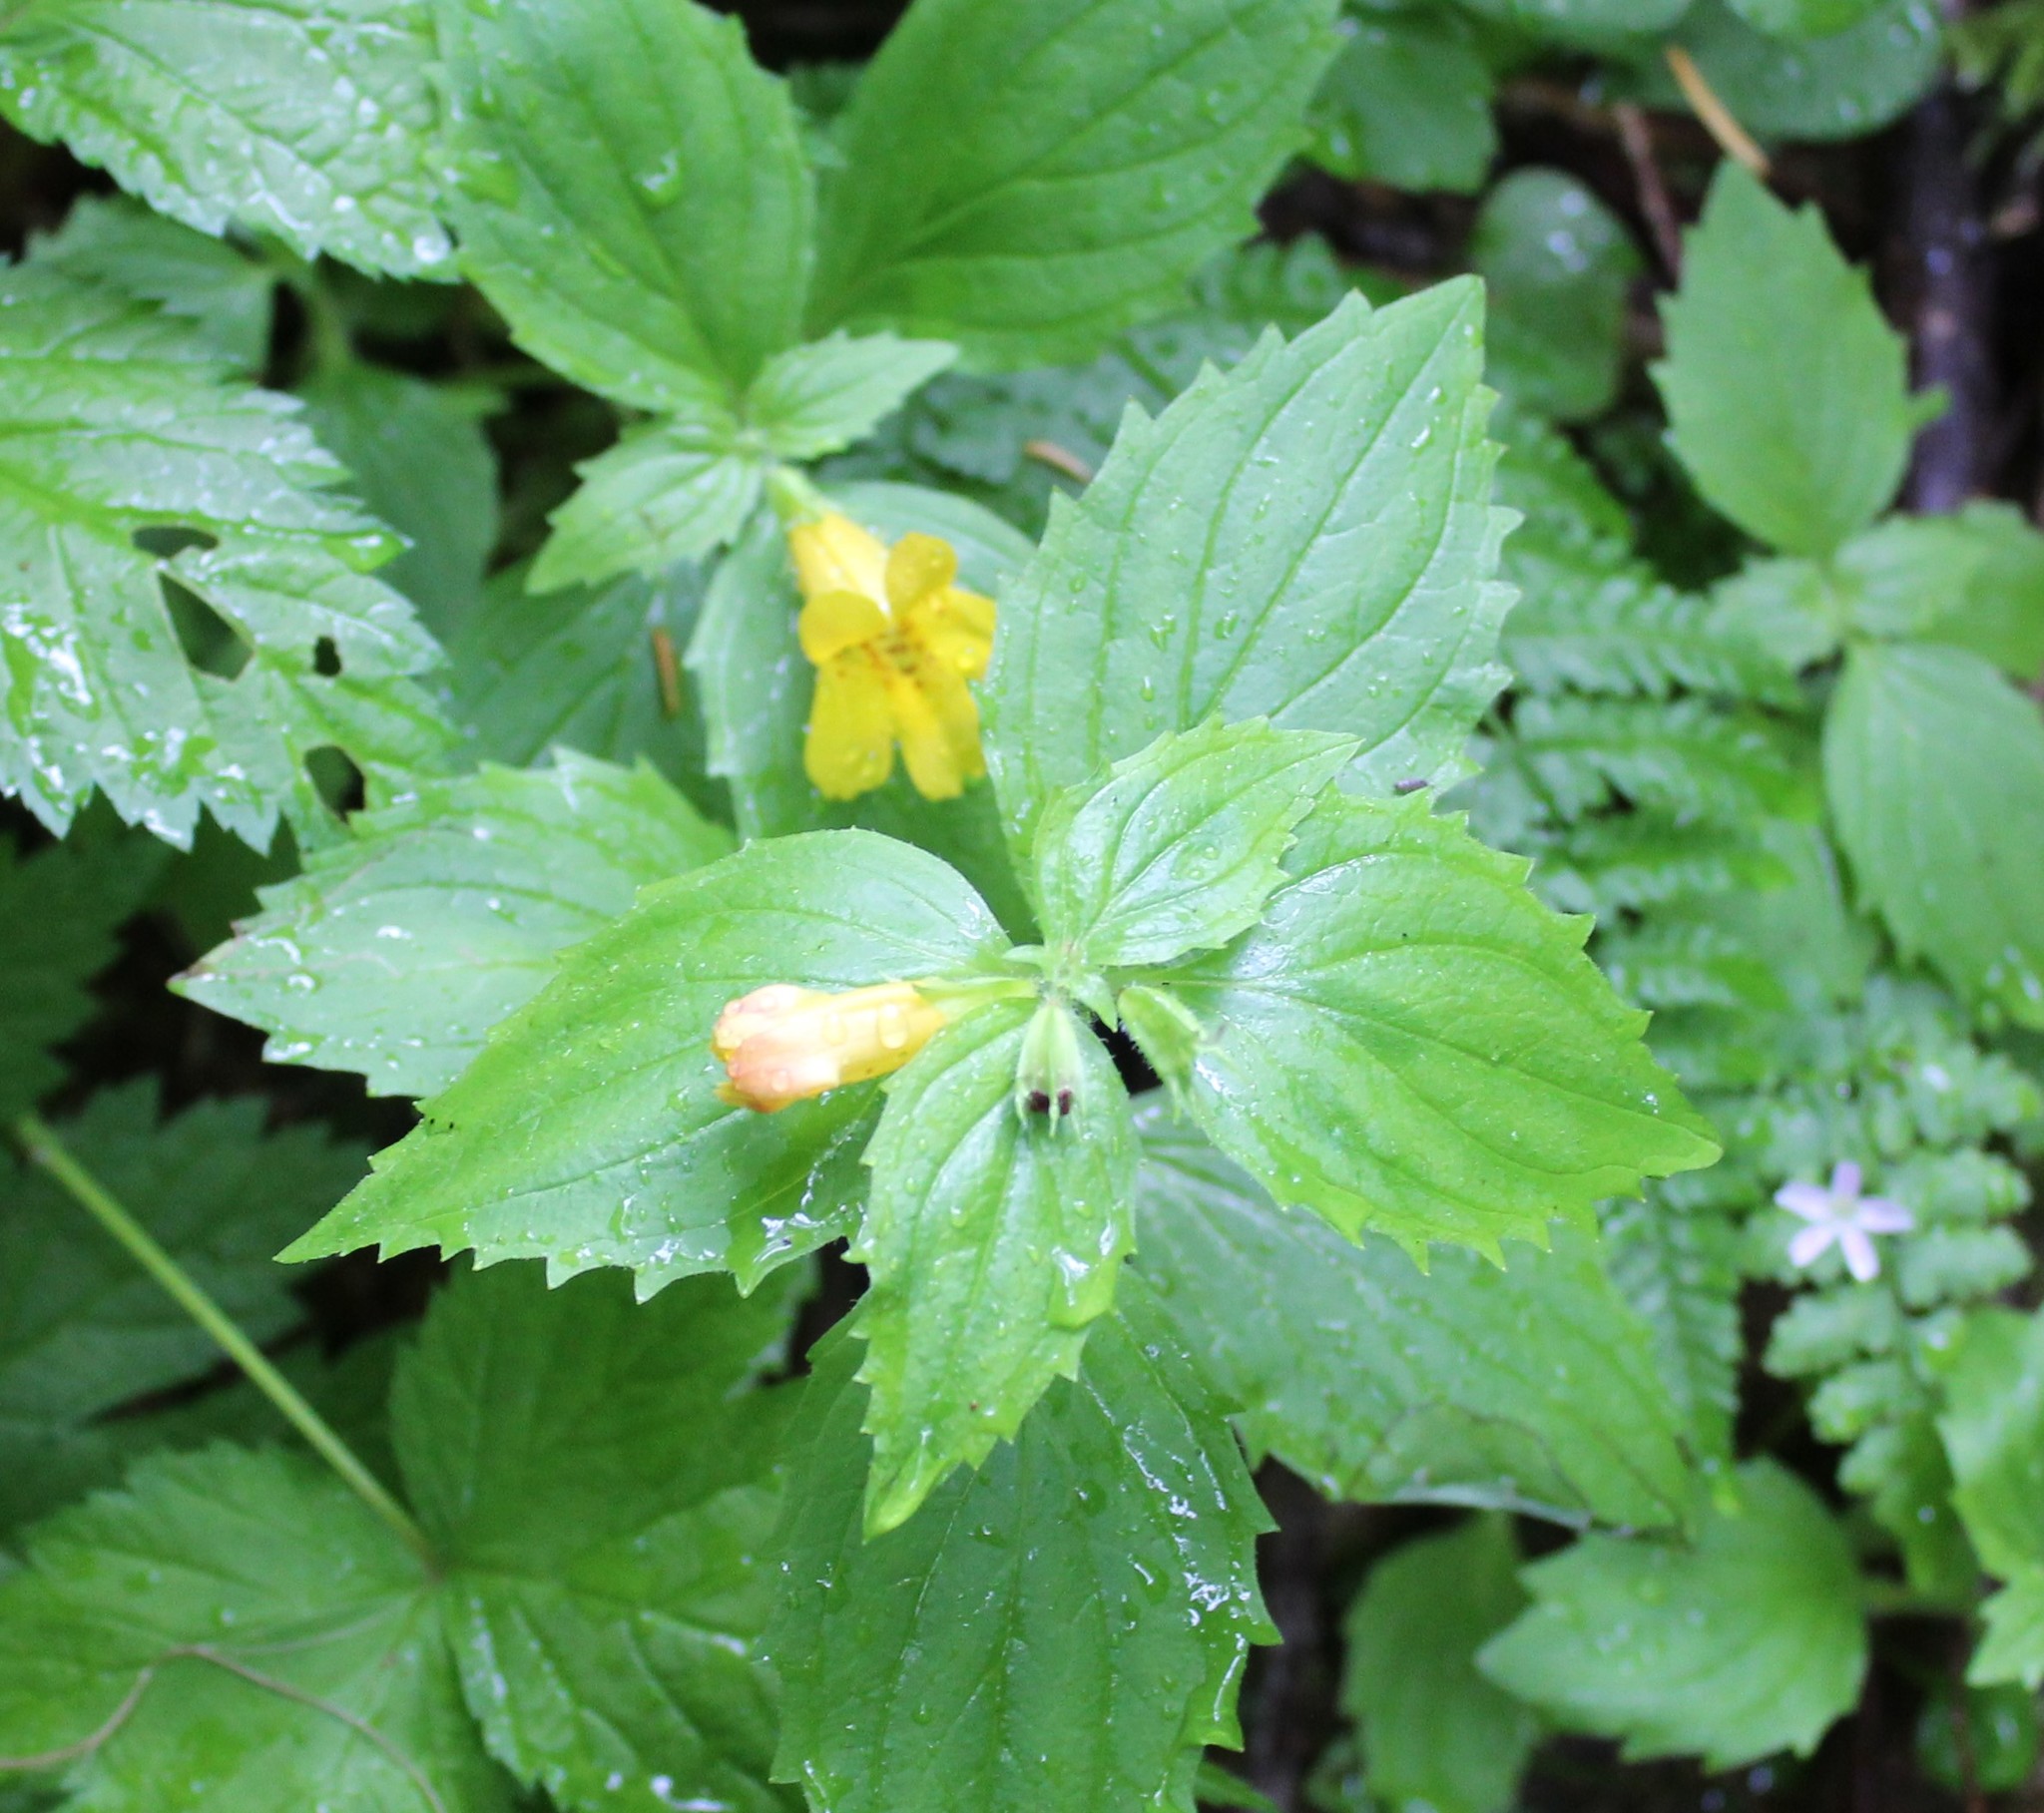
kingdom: Plantae
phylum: Tracheophyta
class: Magnoliopsida
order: Lamiales
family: Phrymaceae
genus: Erythranthe
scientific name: Erythranthe dentata
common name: Coastal monkeyflower
